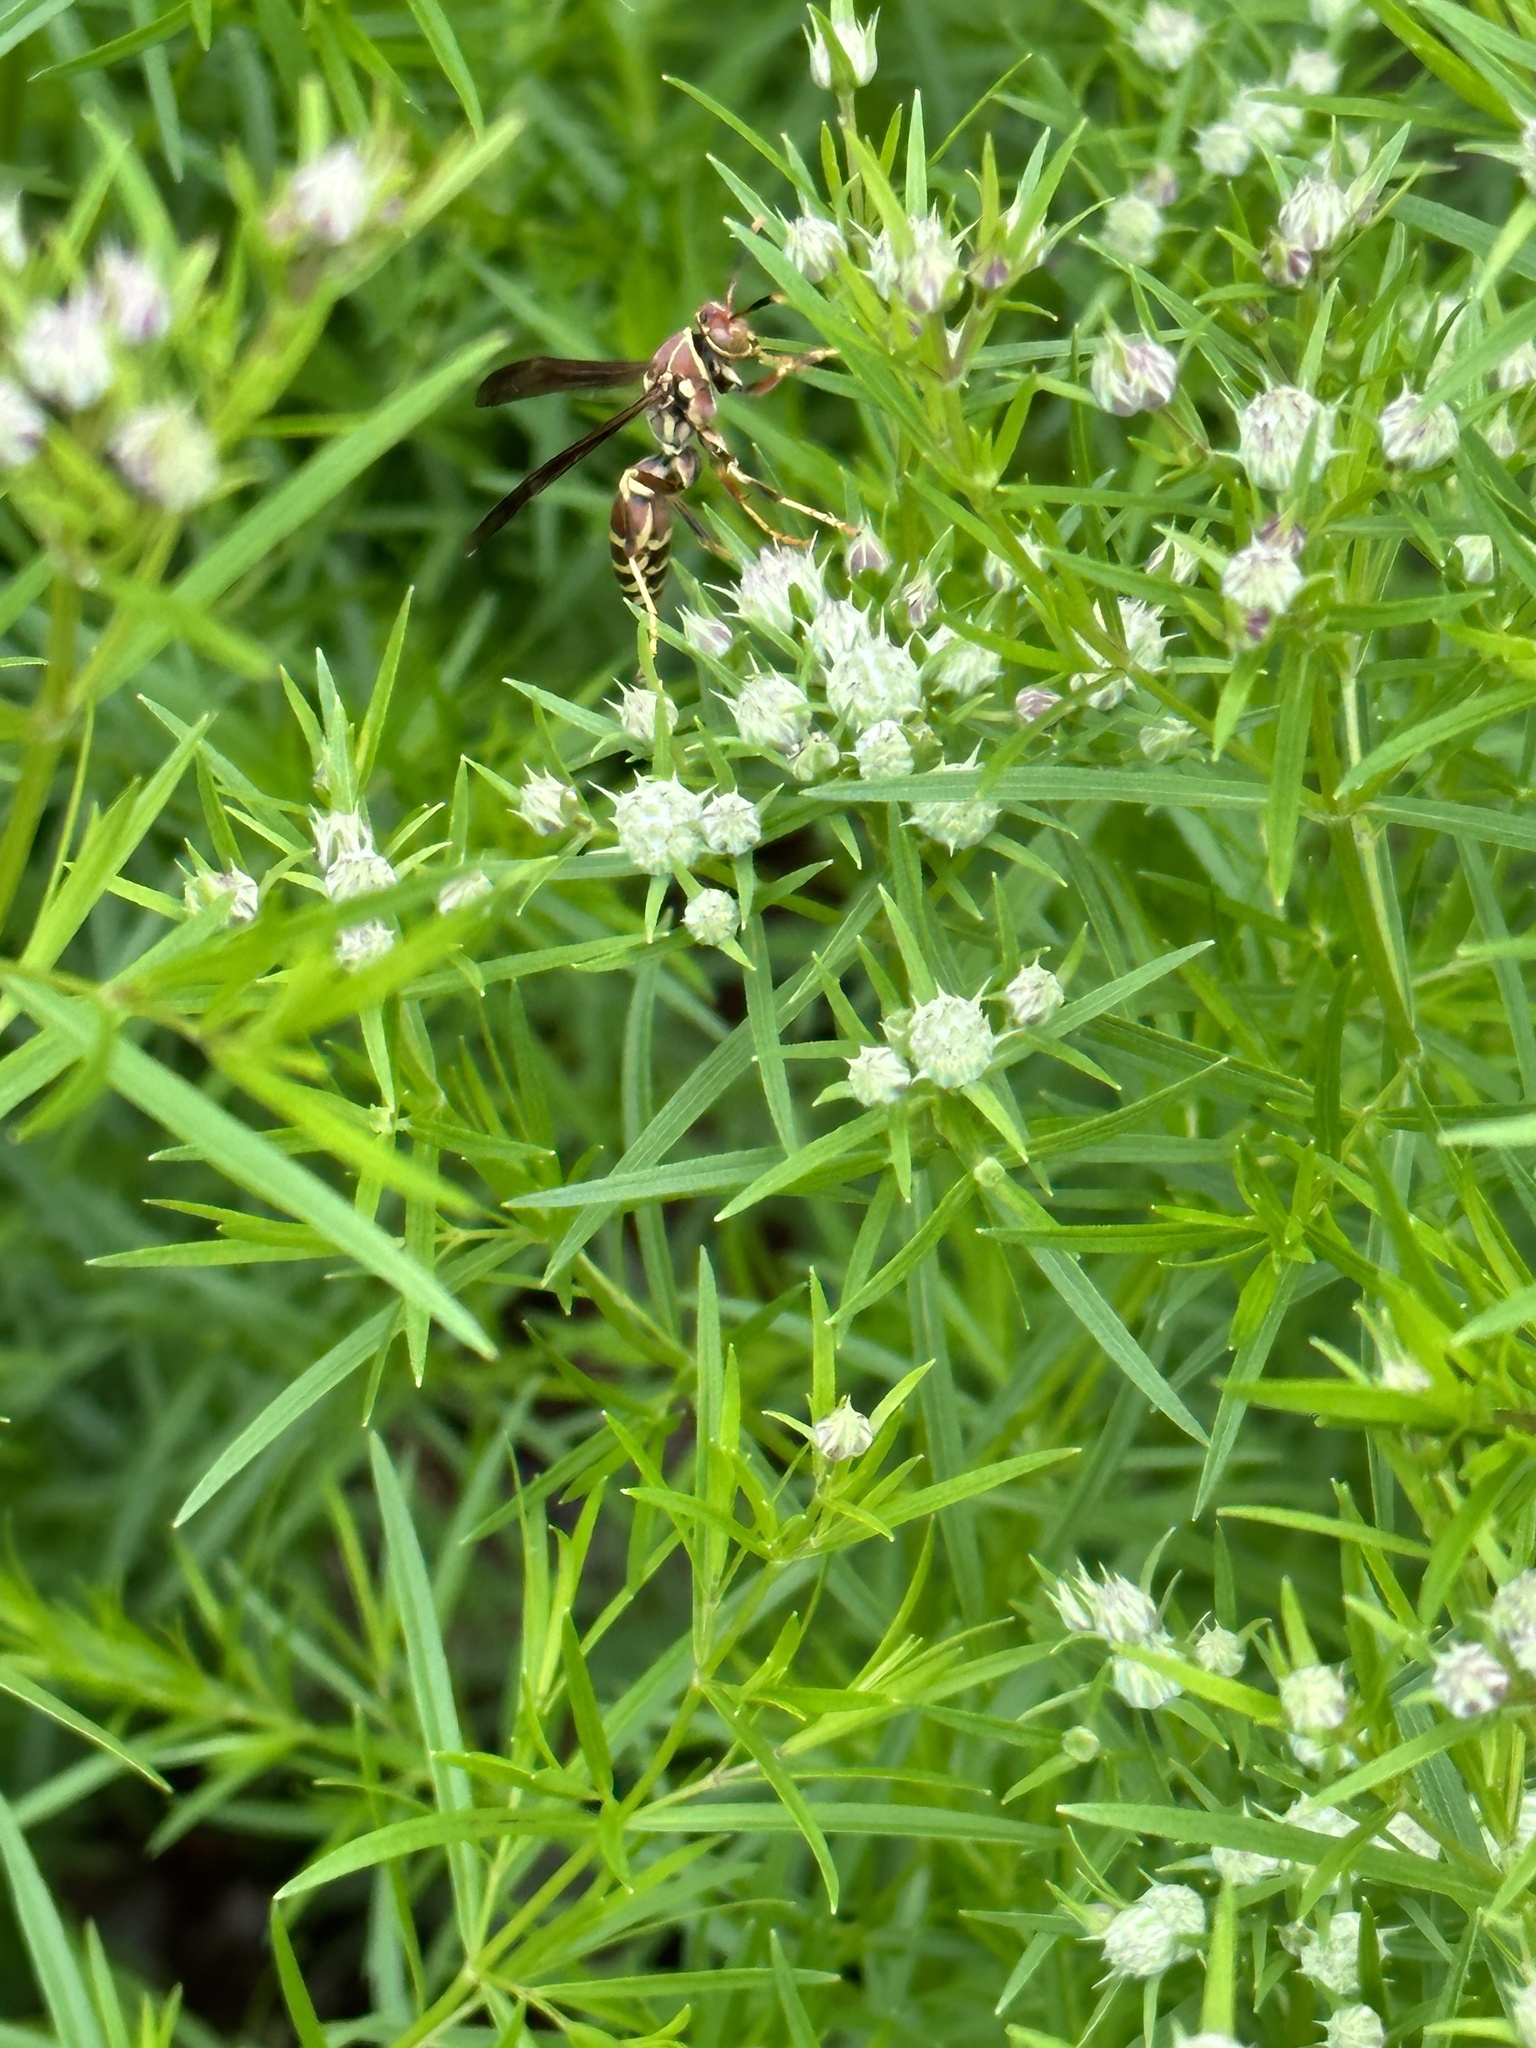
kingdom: Animalia
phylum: Arthropoda
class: Insecta
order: Hymenoptera
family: Eumenidae
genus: Polistes
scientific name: Polistes exclamans
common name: Paper wasp
